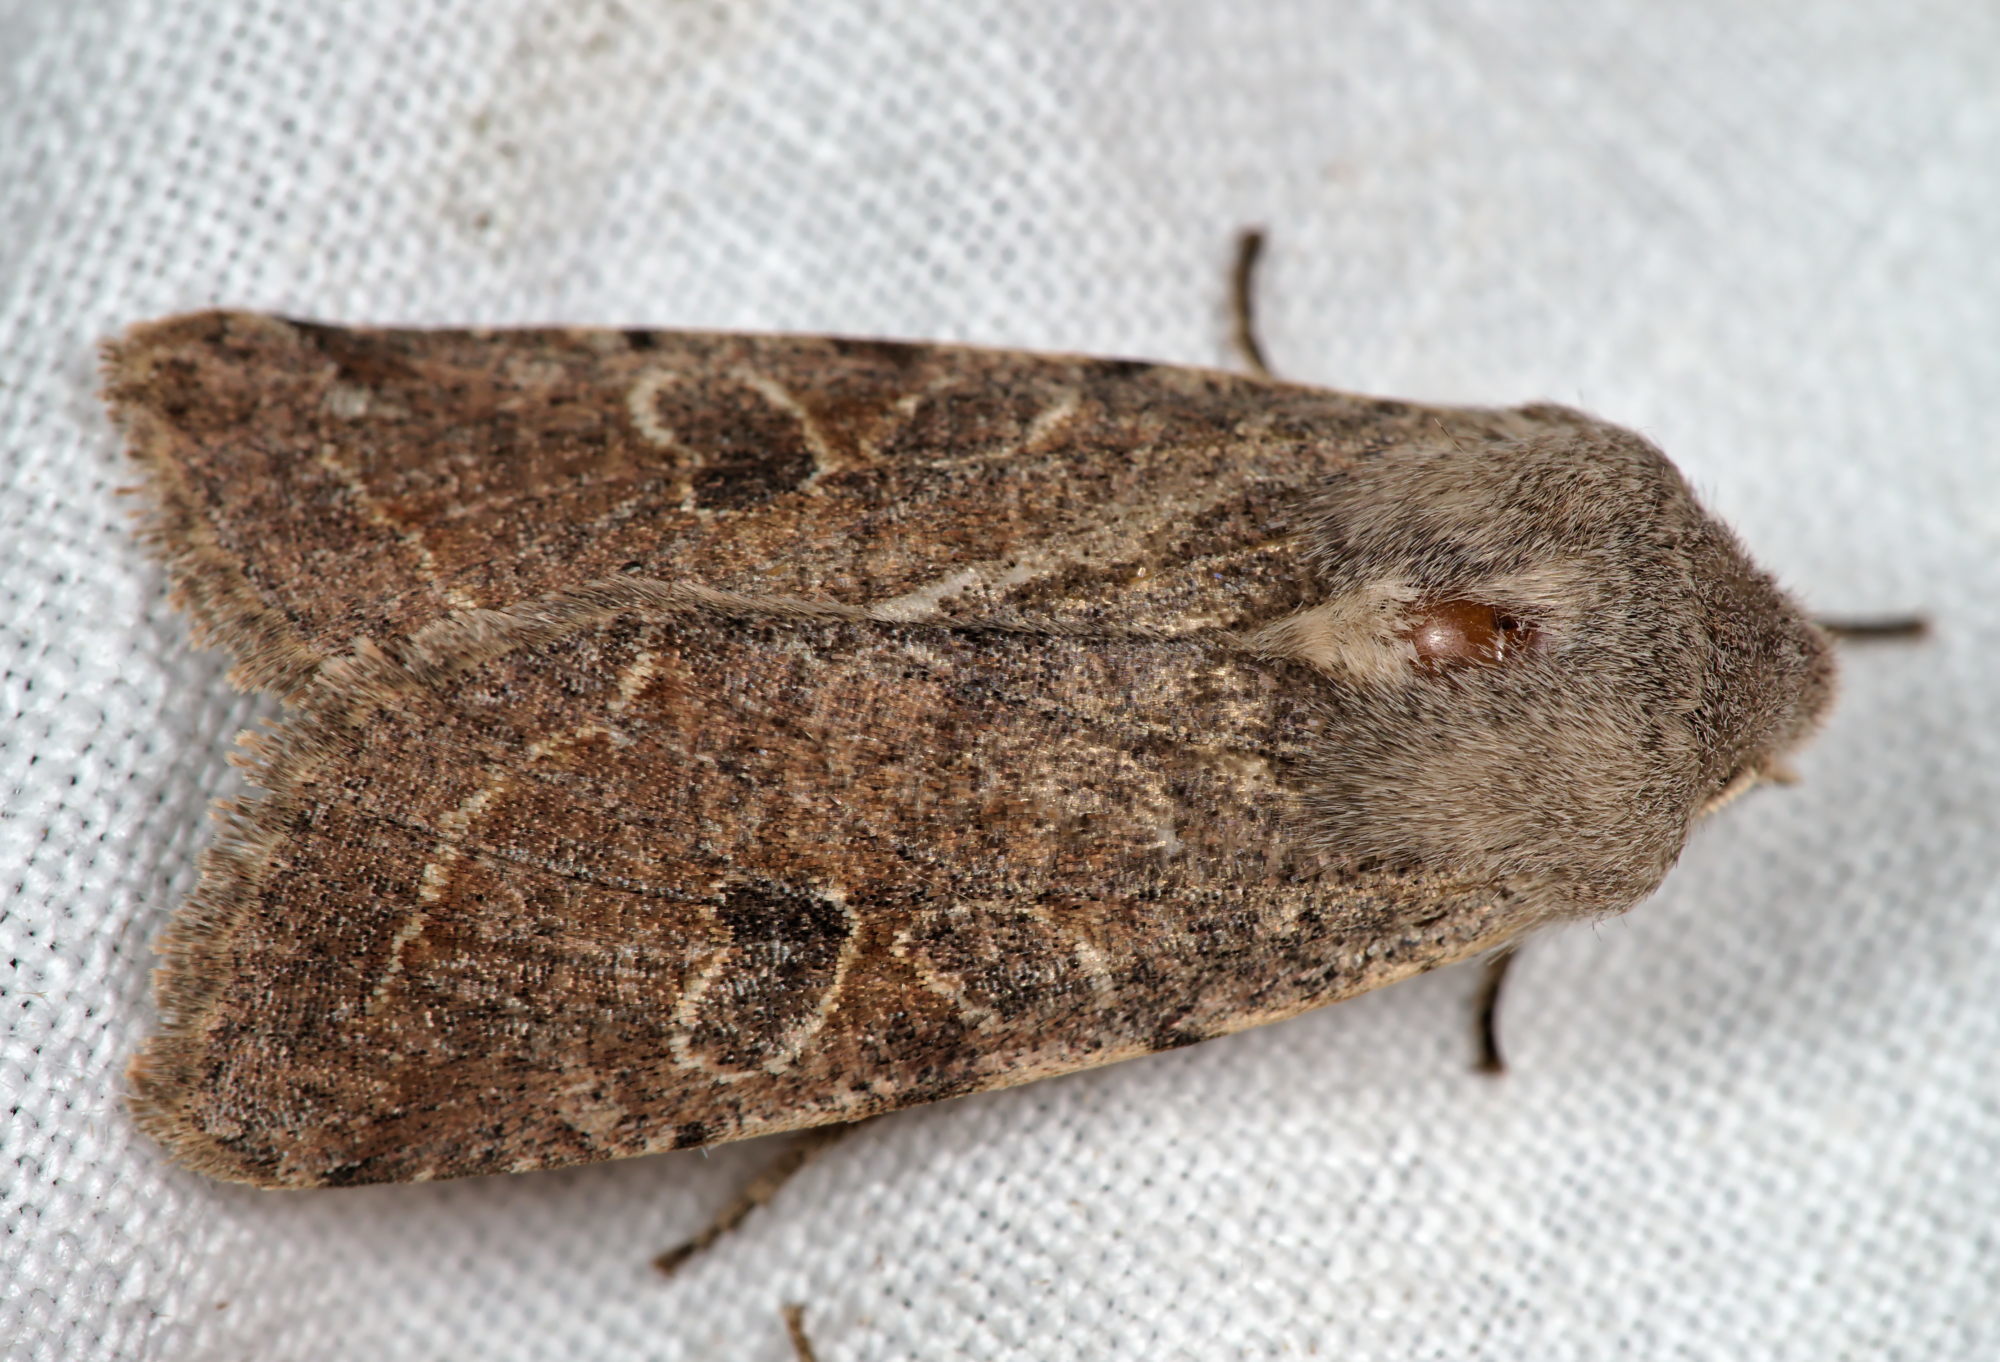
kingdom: Animalia
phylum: Arthropoda
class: Insecta
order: Lepidoptera
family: Noctuidae
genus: Orthosia
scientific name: Orthosia incerta
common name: Clouded drab
